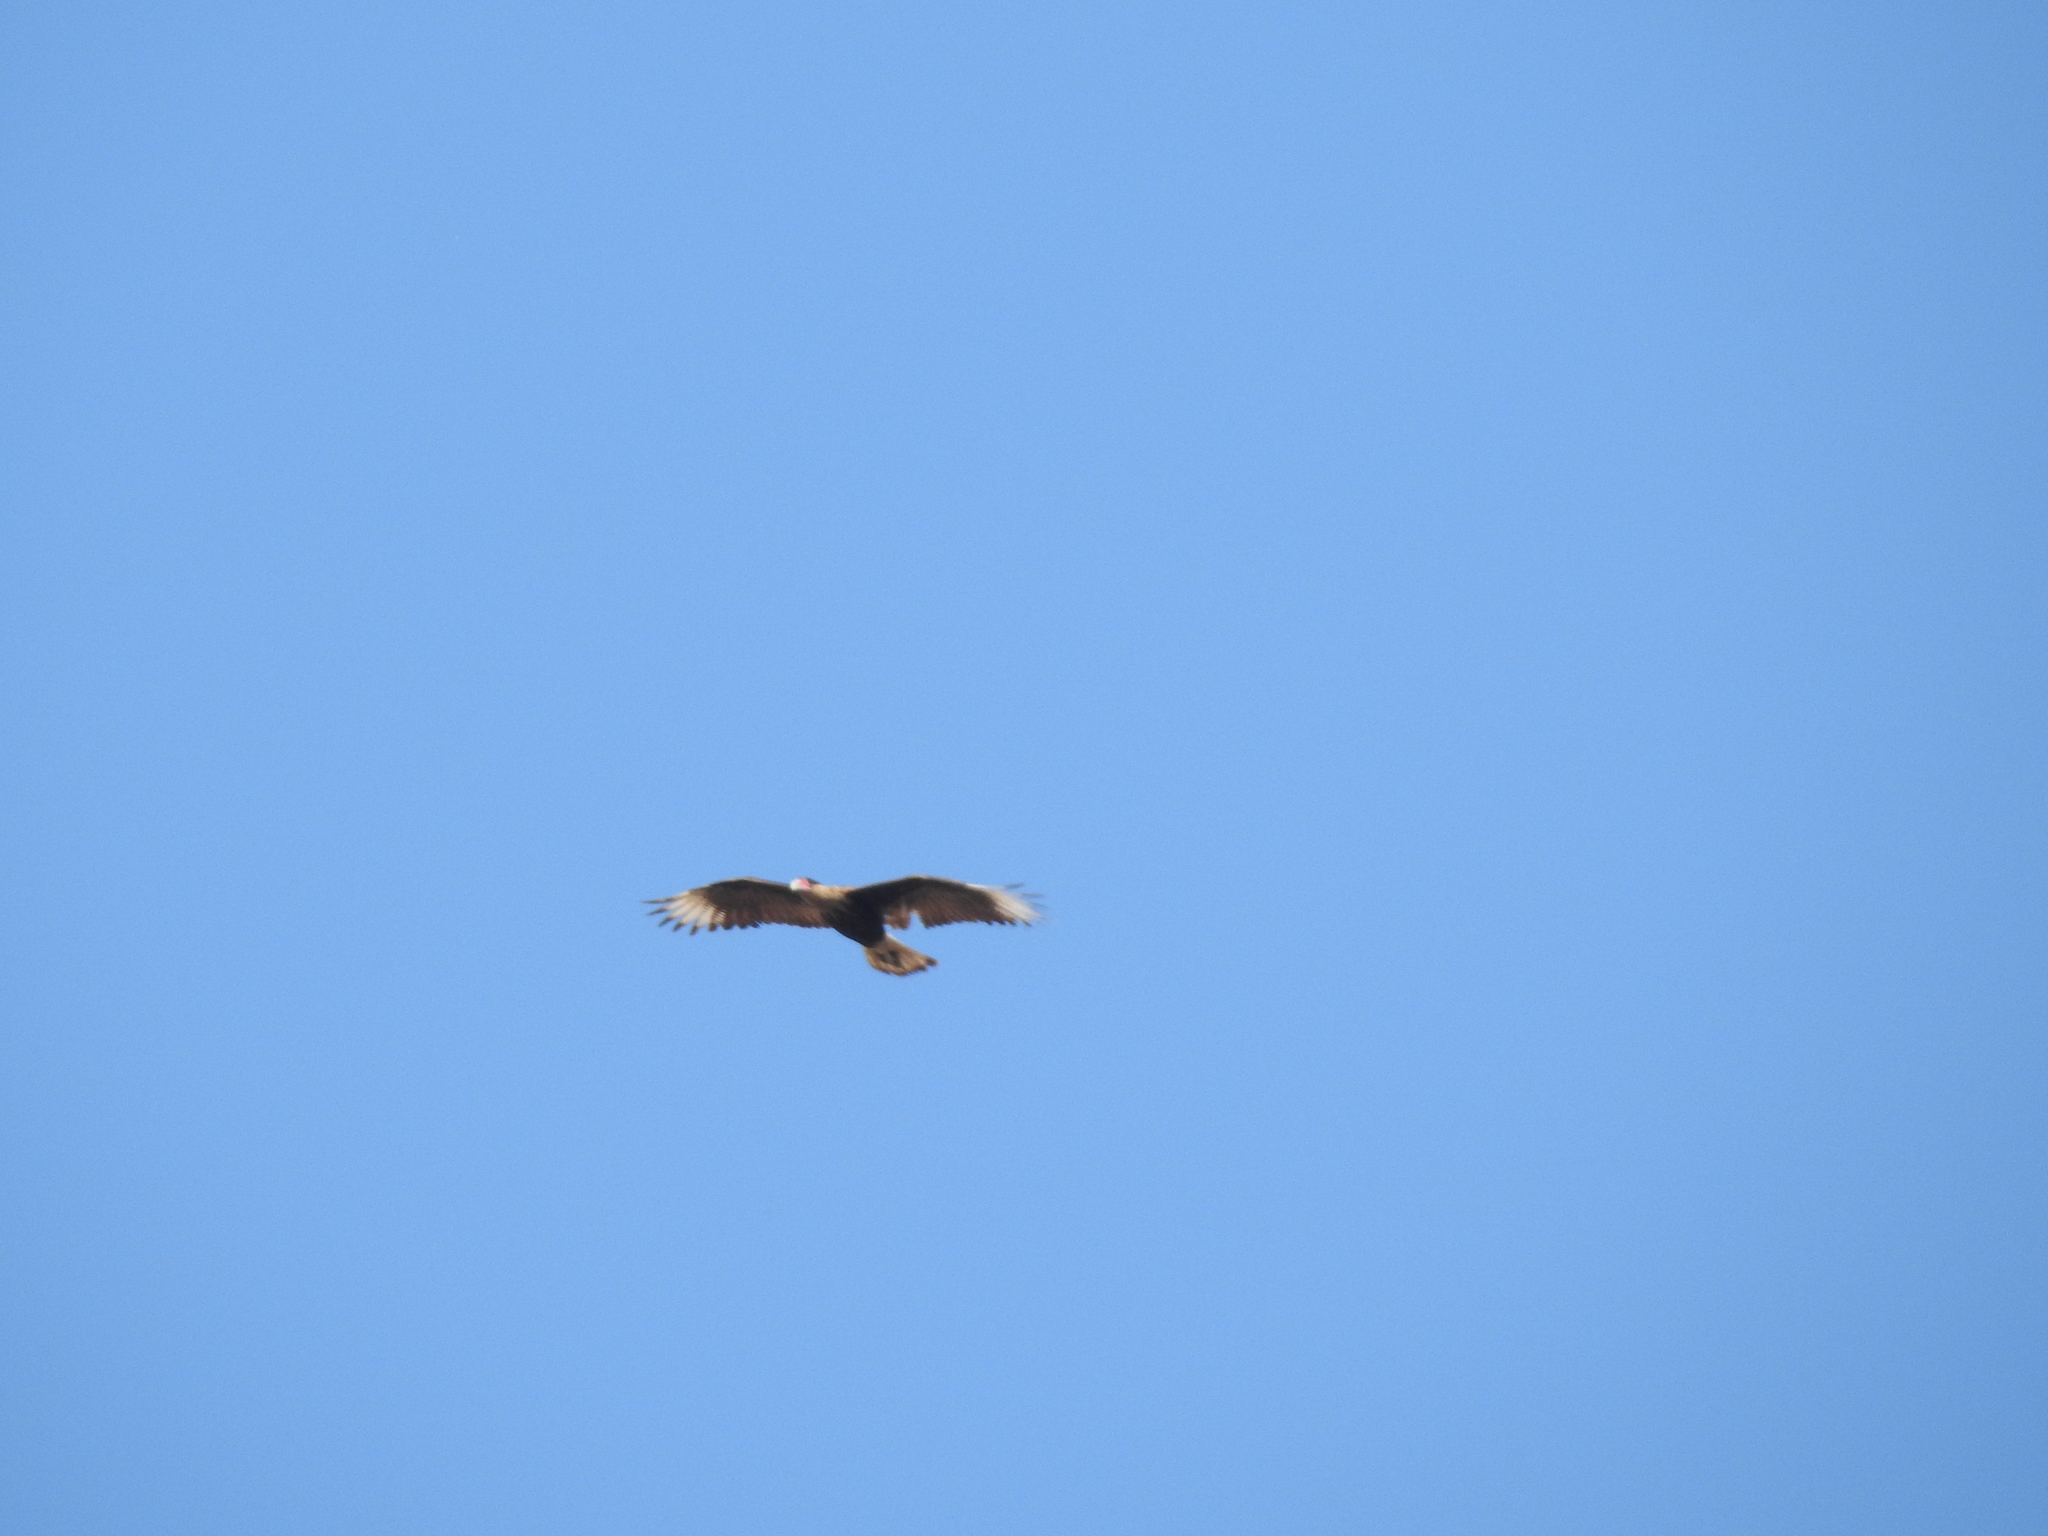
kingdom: Animalia
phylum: Chordata
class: Aves
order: Falconiformes
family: Falconidae
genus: Caracara
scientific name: Caracara plancus
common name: Southern caracara
